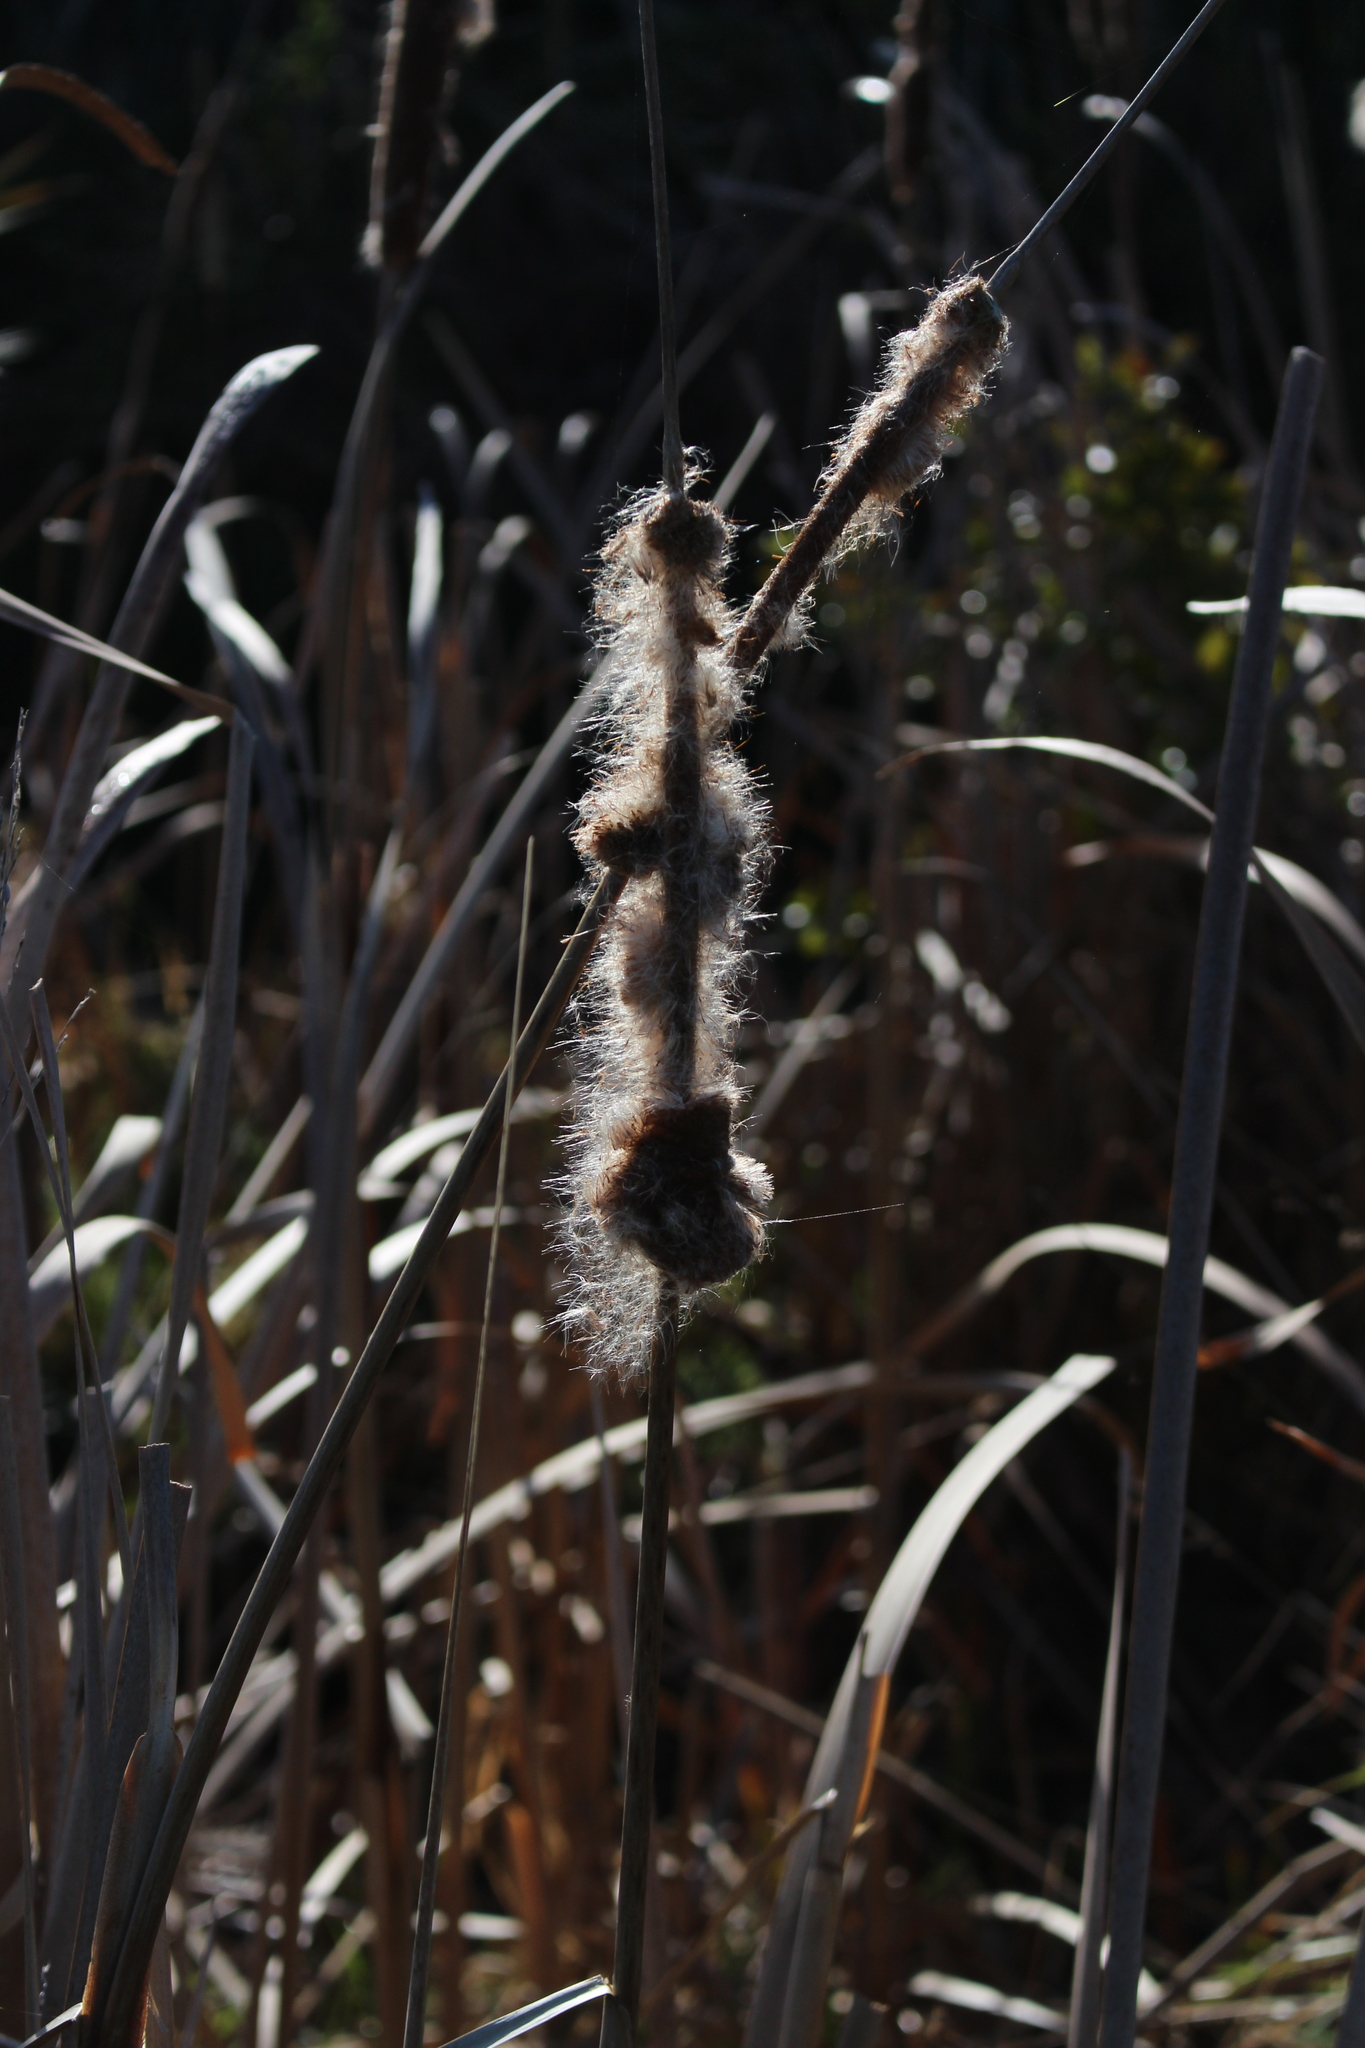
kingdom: Plantae
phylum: Tracheophyta
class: Liliopsida
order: Poales
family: Typhaceae
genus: Typha
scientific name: Typha orientalis
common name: Bullrush
